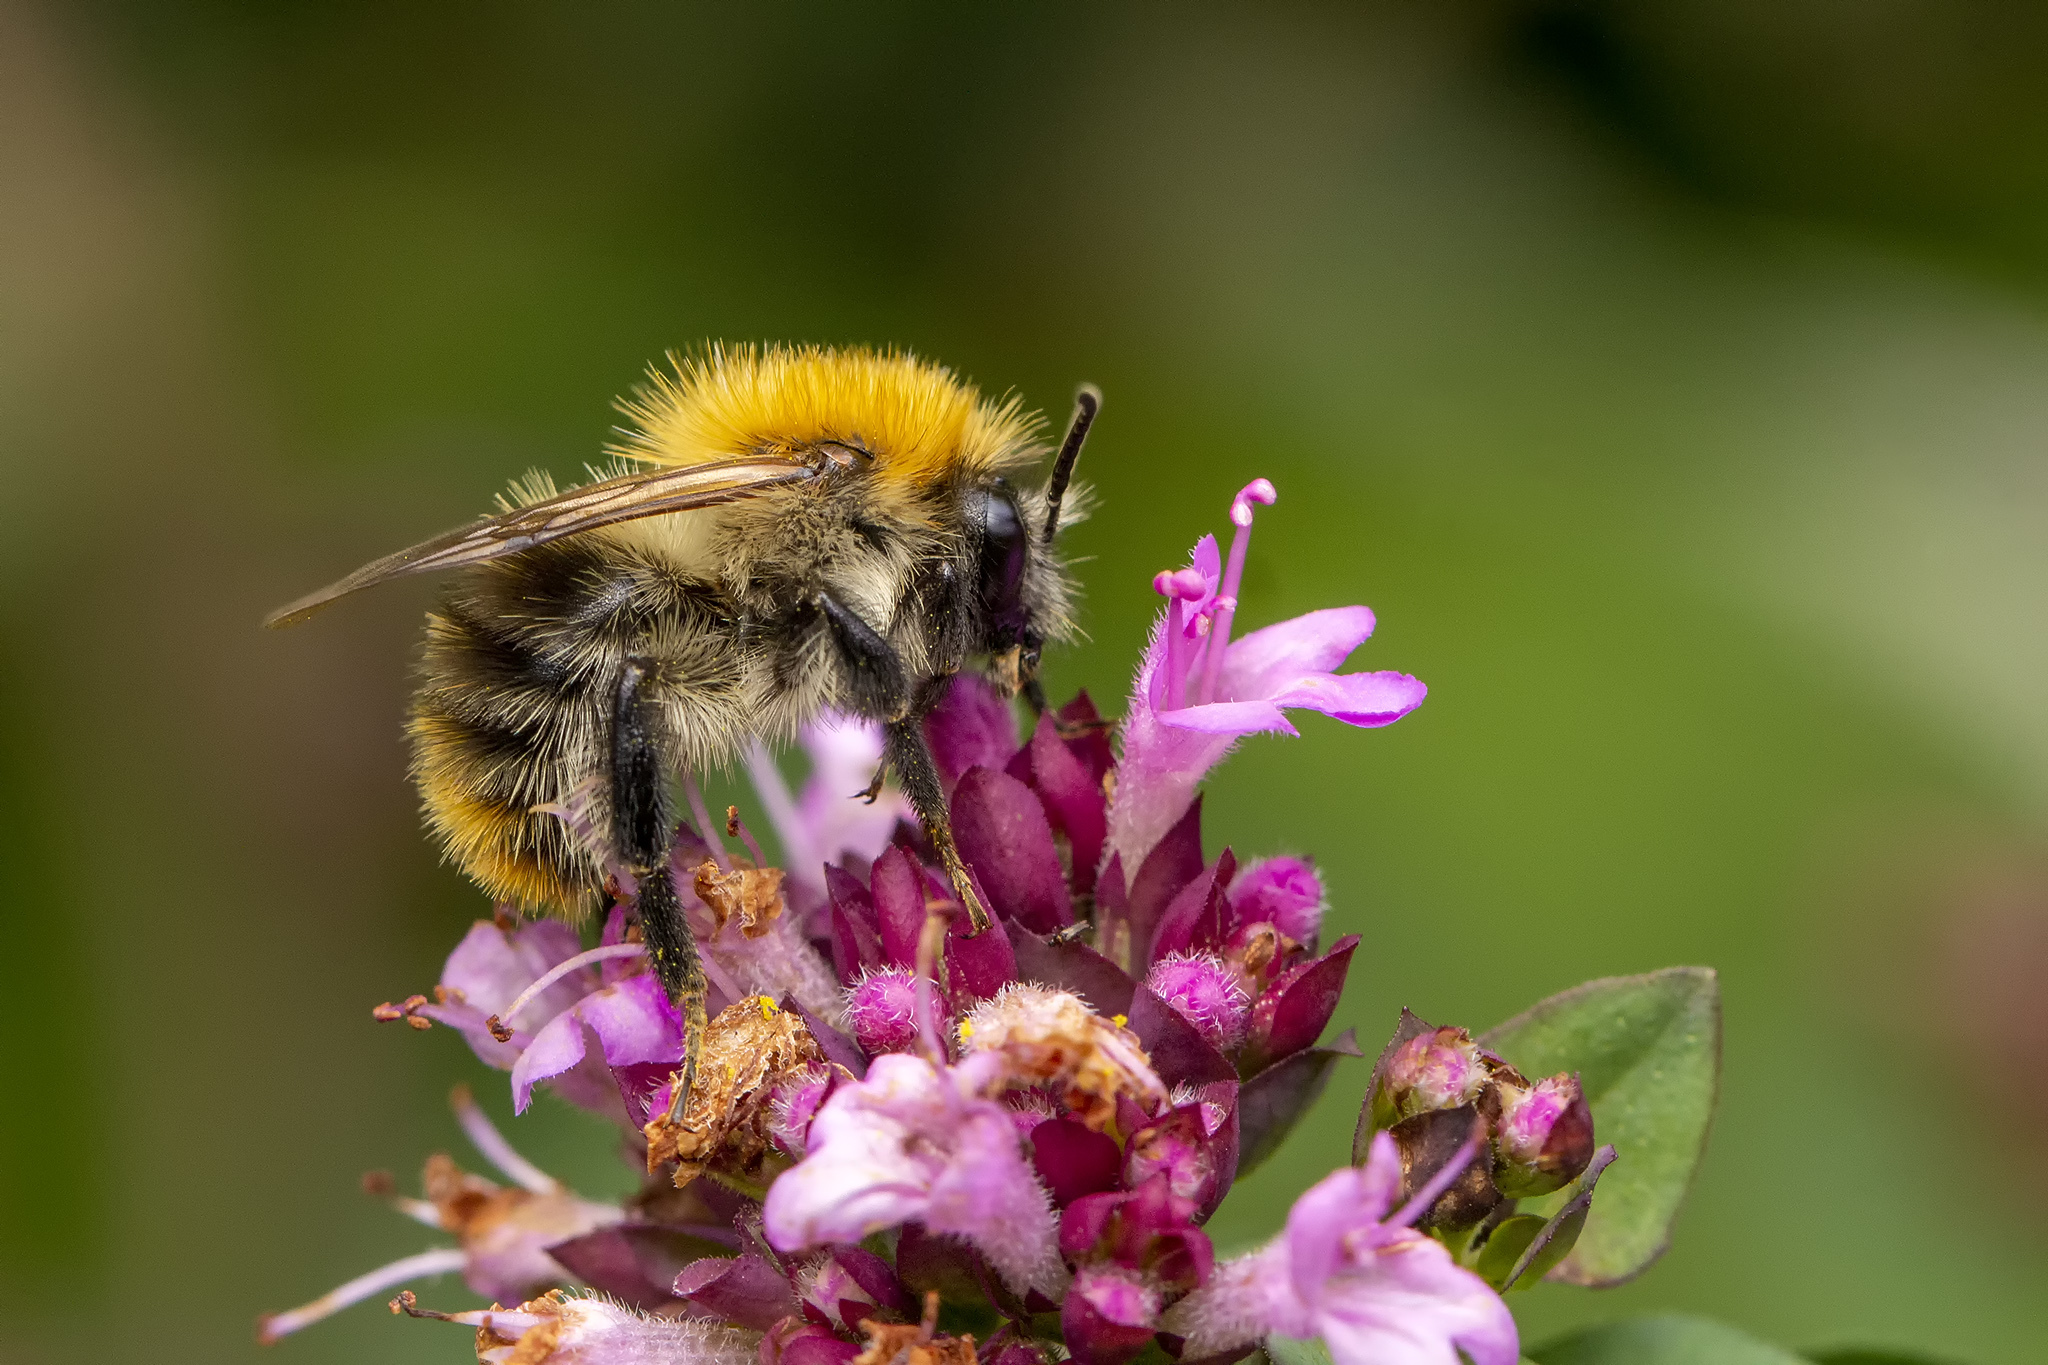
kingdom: Animalia
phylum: Arthropoda
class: Insecta
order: Hymenoptera
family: Apidae
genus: Bombus
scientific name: Bombus pascuorum
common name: Common carder bee
